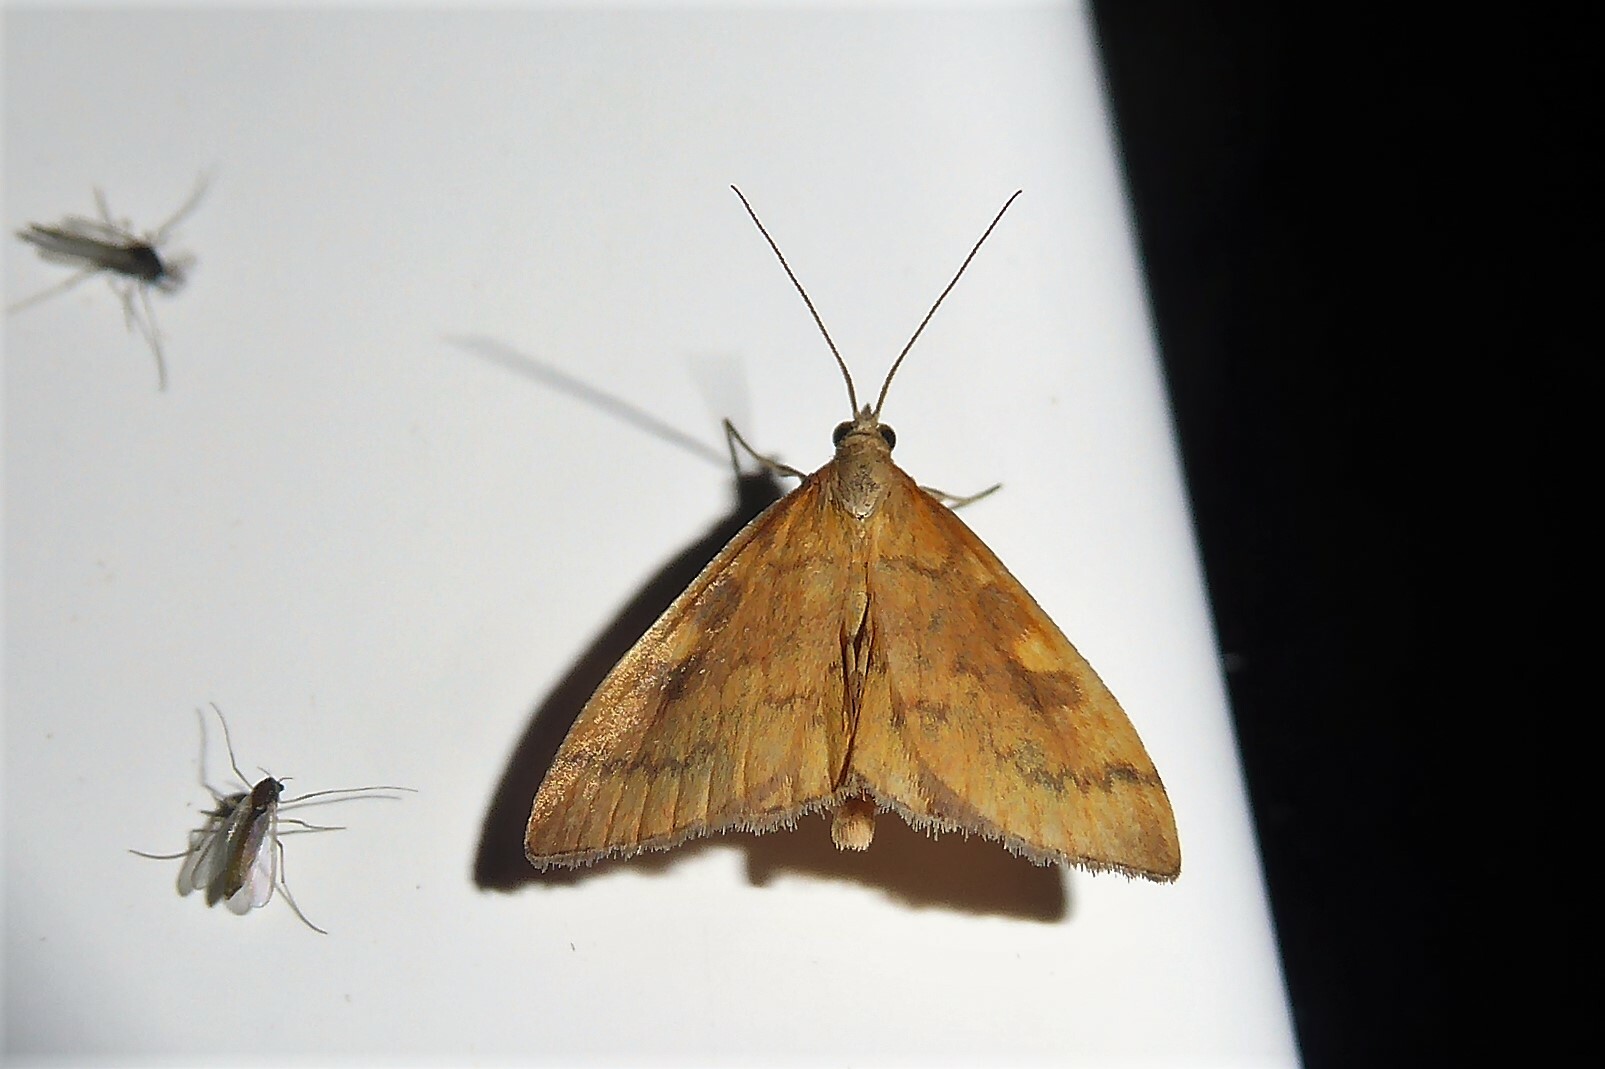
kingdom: Animalia
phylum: Arthropoda
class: Insecta
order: Lepidoptera
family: Crambidae
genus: Udea
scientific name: Udea Mnesictena flavidalis
